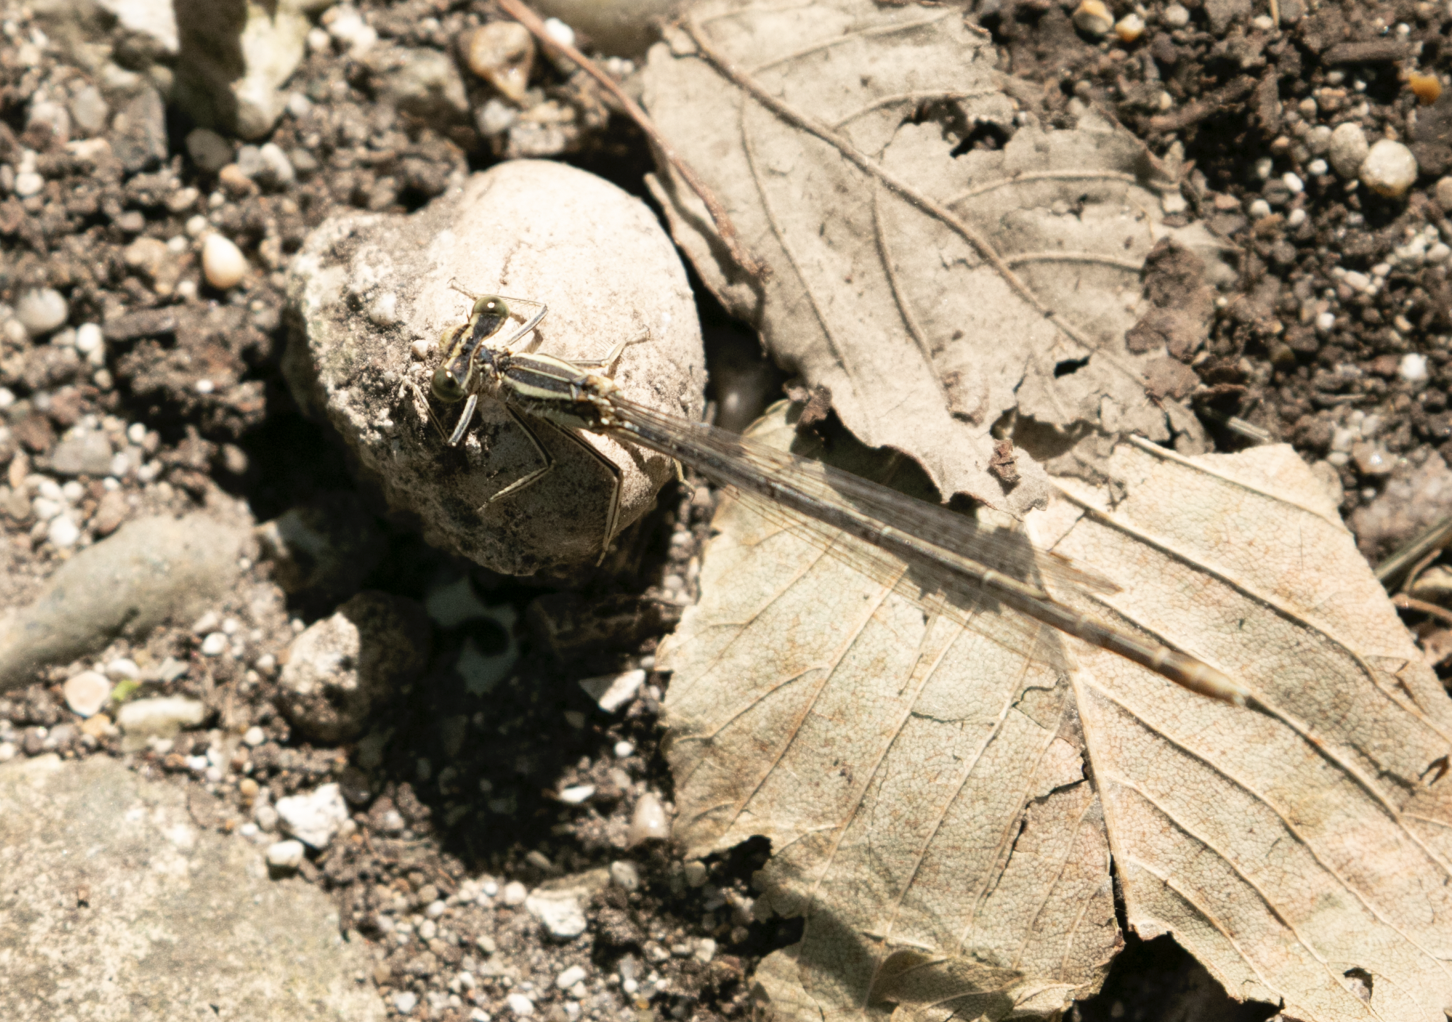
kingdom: Animalia
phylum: Arthropoda
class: Insecta
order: Odonata
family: Platycnemididae
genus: Platycnemis
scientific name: Platycnemis pennipes
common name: White-legged damselfly
